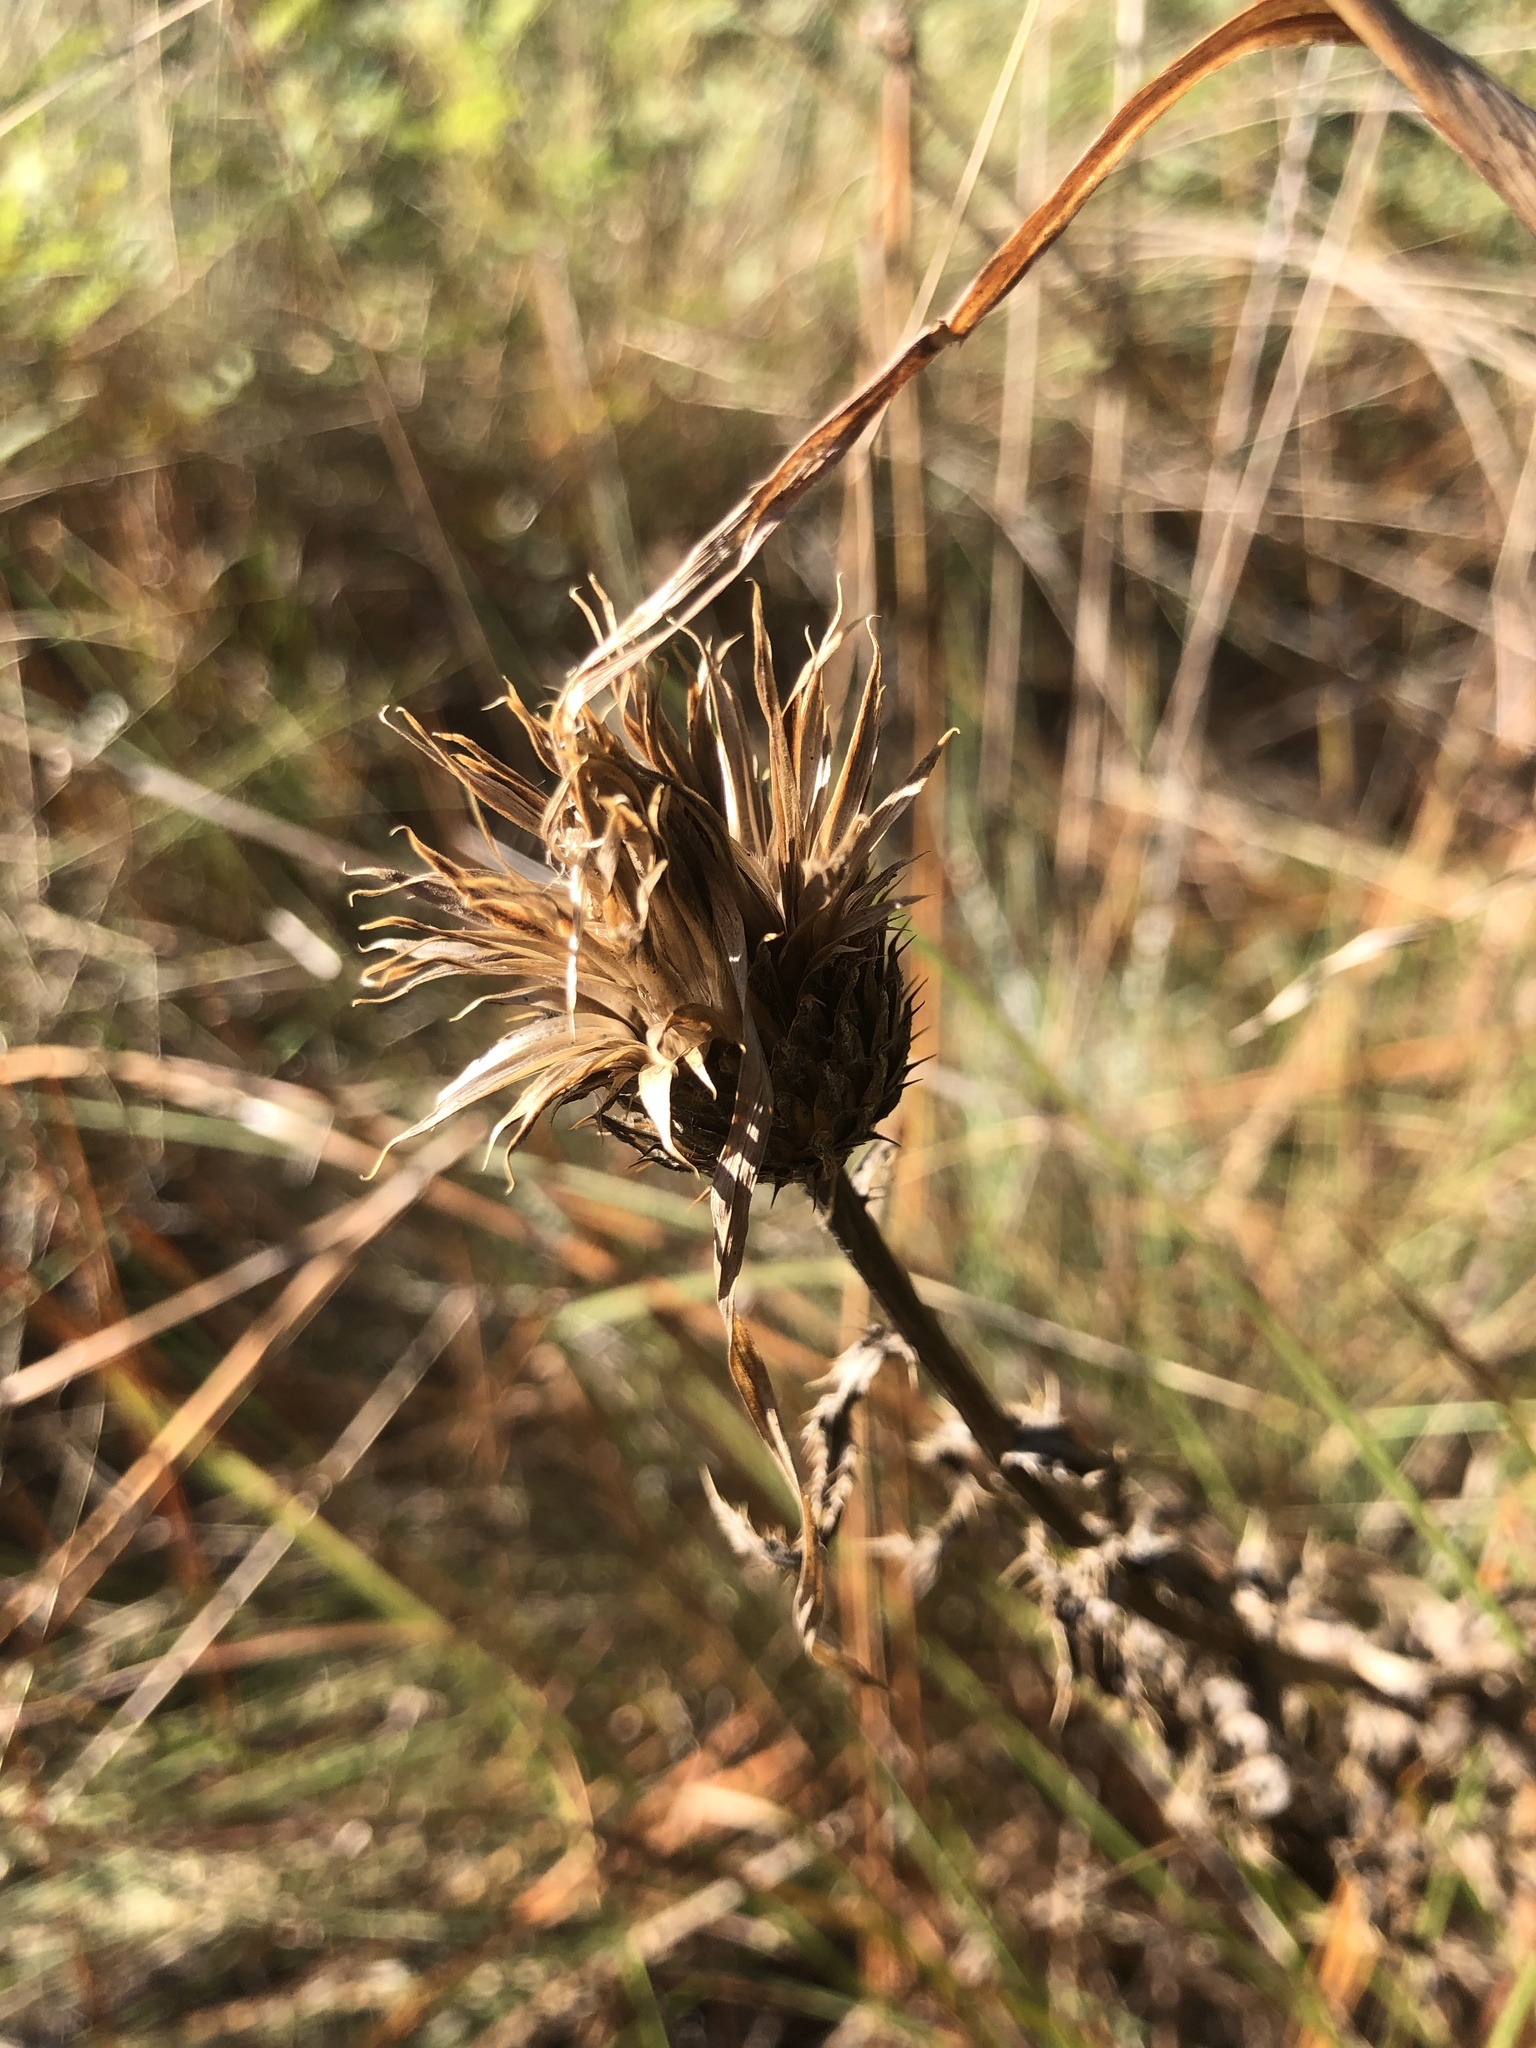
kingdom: Plantae
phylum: Tracheophyta
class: Magnoliopsida
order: Asterales
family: Asteraceae
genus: Cirsium
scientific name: Cirsium repandum
